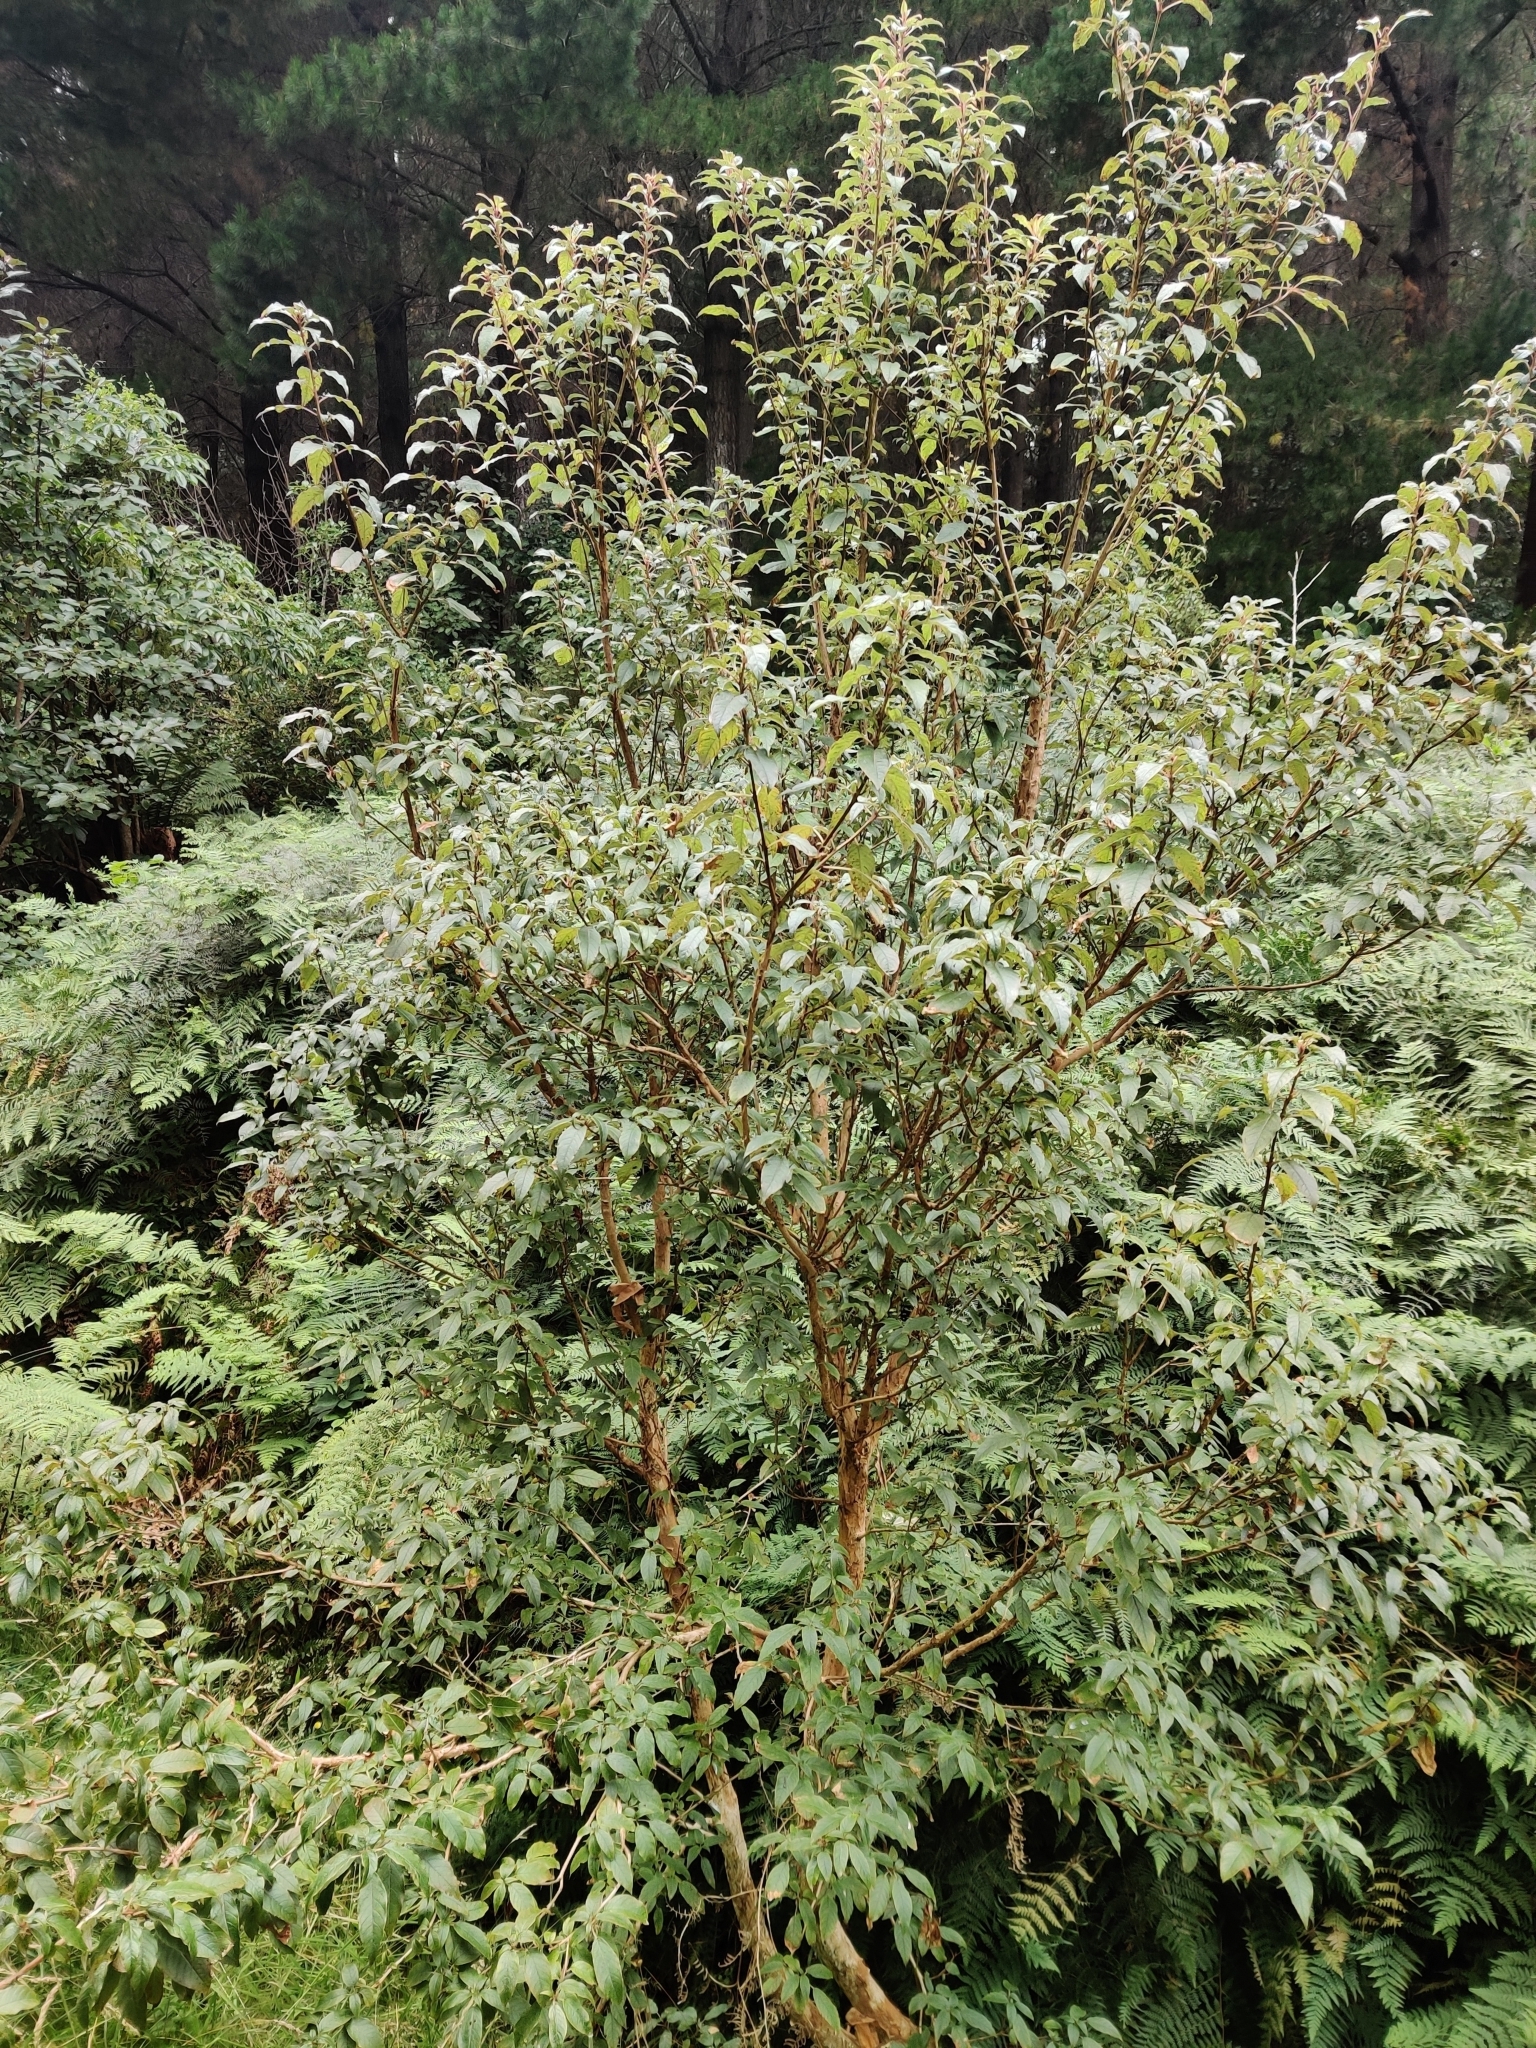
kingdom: Plantae
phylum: Tracheophyta
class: Magnoliopsida
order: Myrtales
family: Onagraceae
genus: Fuchsia
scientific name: Fuchsia excorticata
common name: Tree fuchsia
